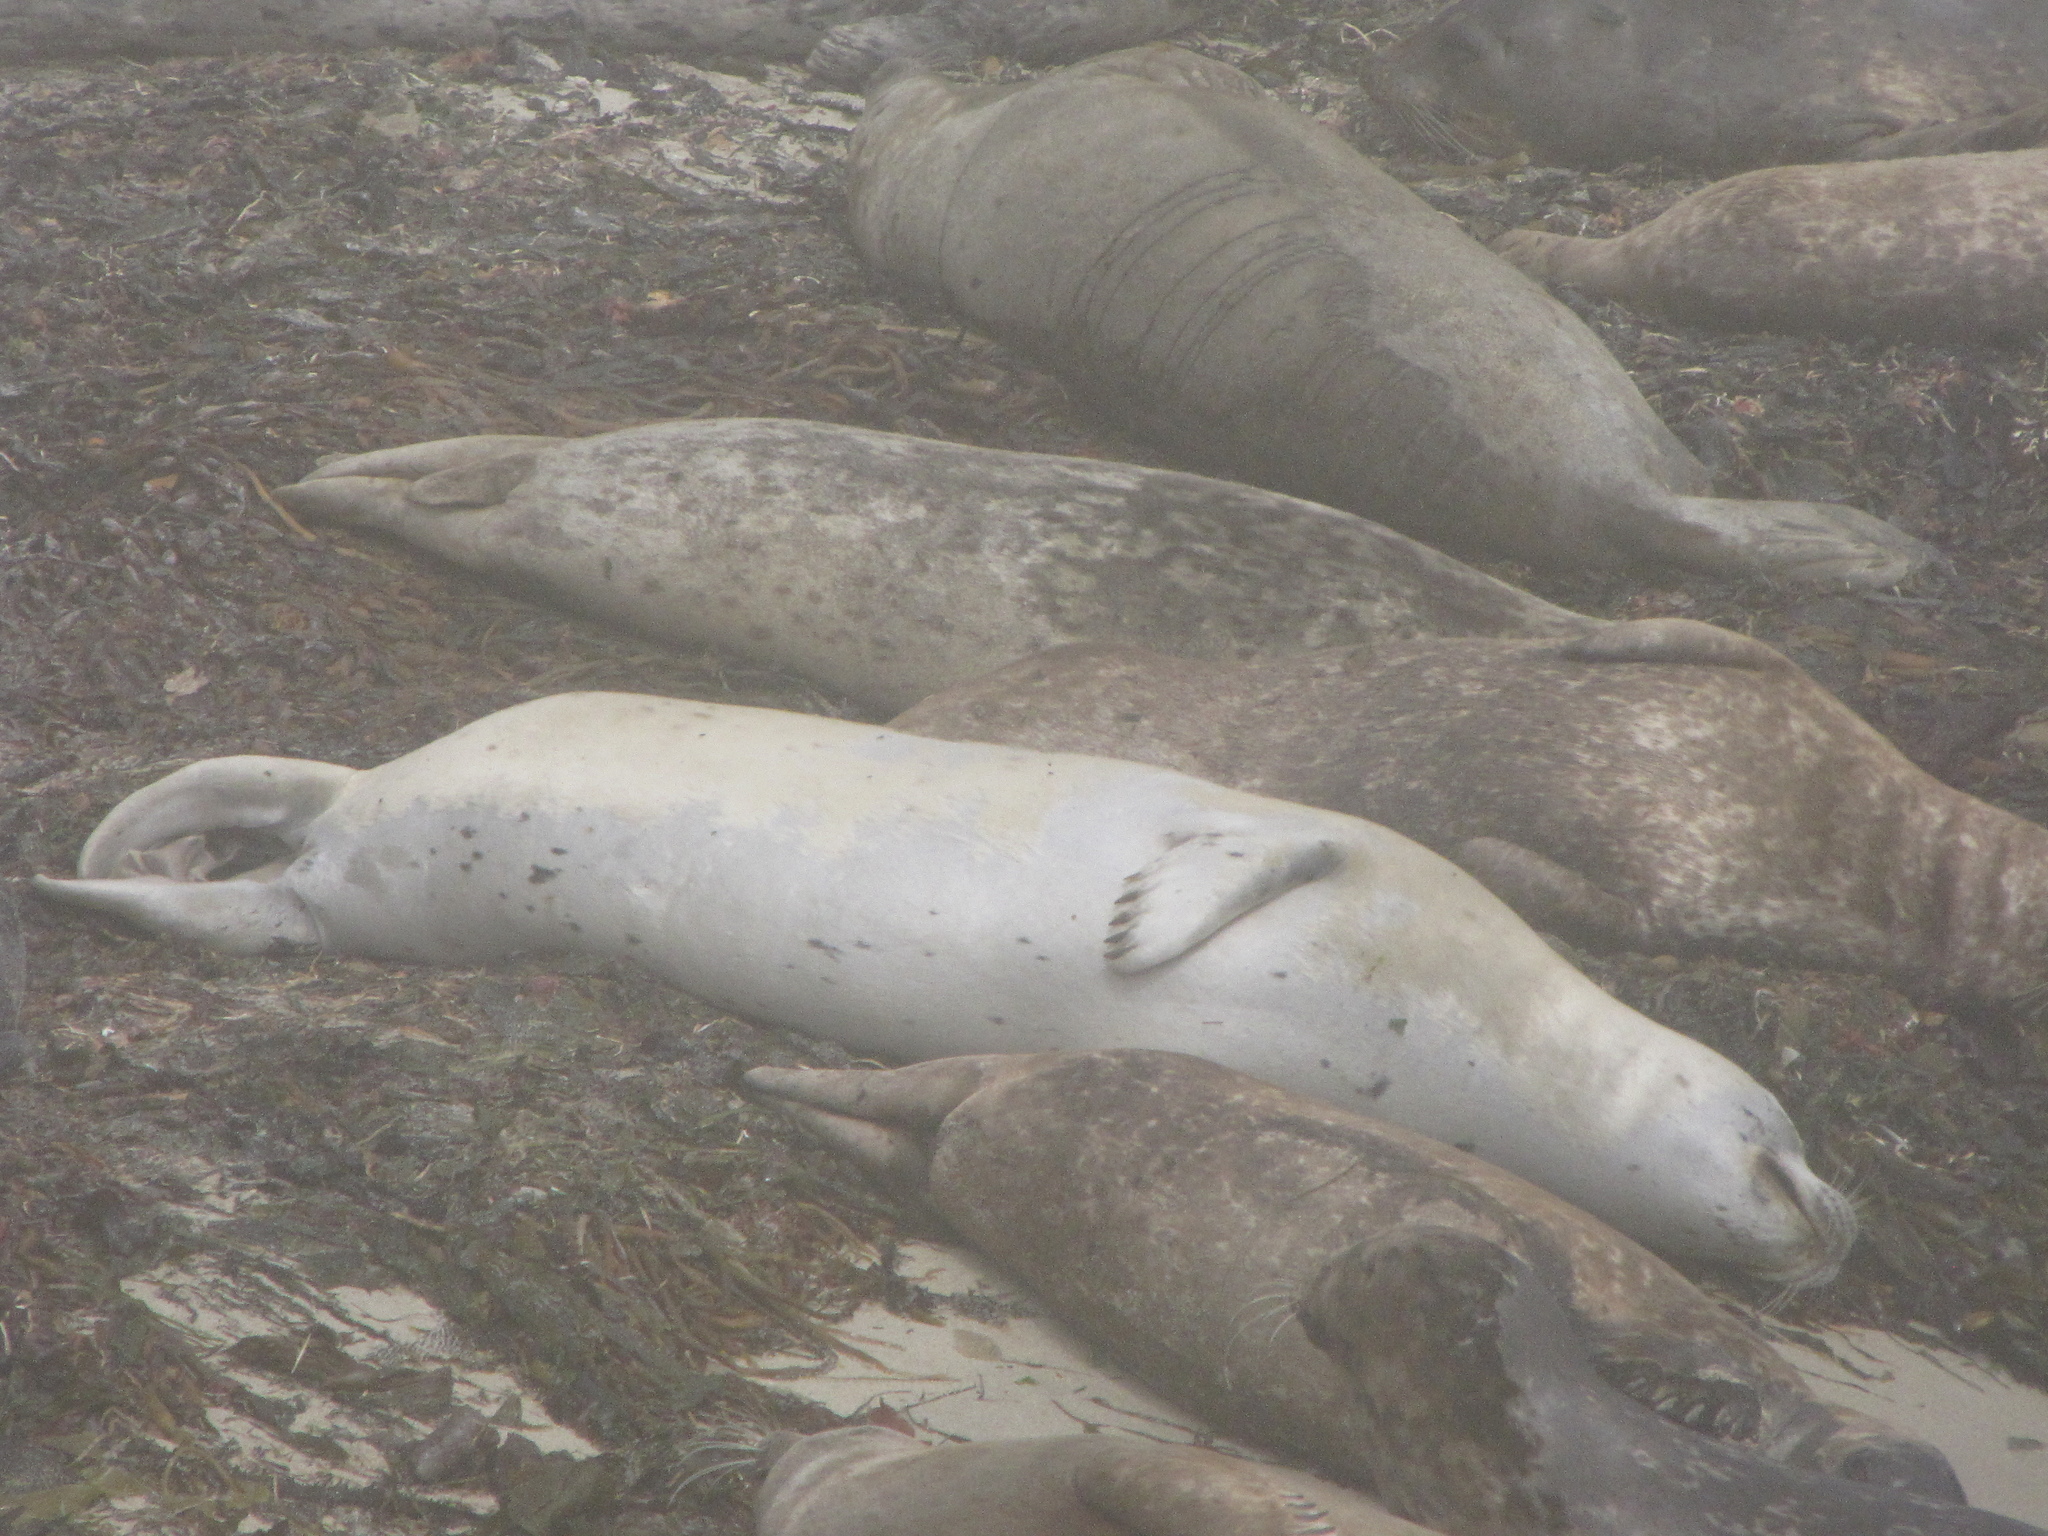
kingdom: Animalia
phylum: Chordata
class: Mammalia
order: Carnivora
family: Phocidae
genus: Phoca
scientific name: Phoca vitulina
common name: Harbor seal
